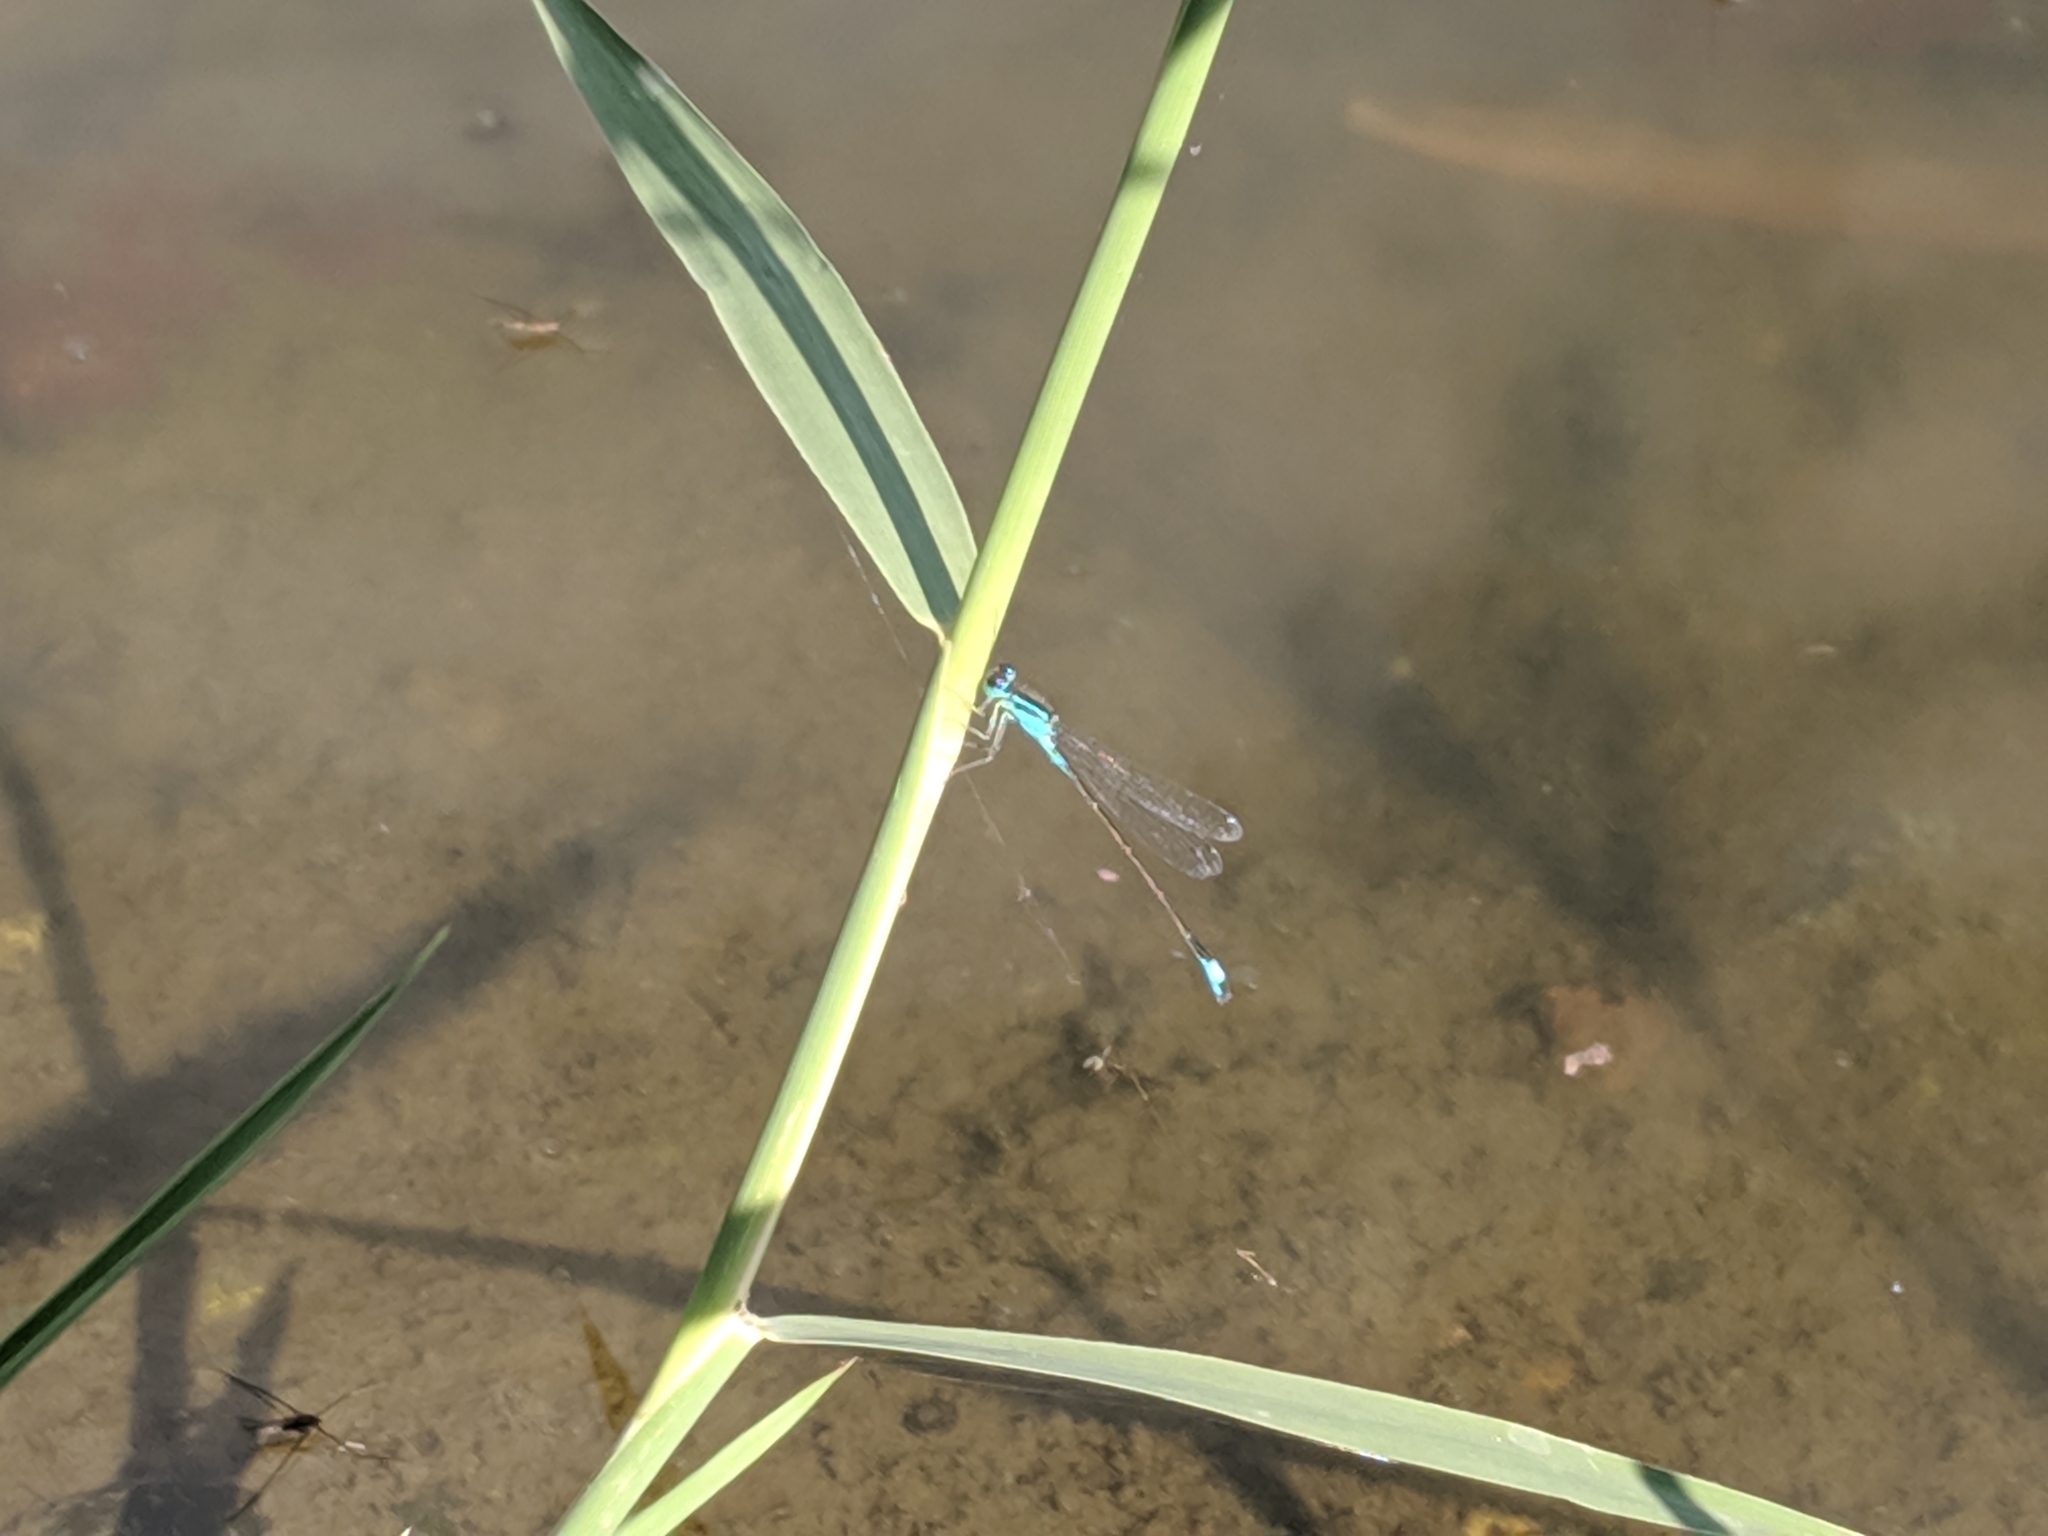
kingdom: Animalia
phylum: Arthropoda
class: Insecta
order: Odonata
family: Coenagrionidae
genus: Ischnura
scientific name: Ischnura elegans
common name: Blue-tailed damselfly
